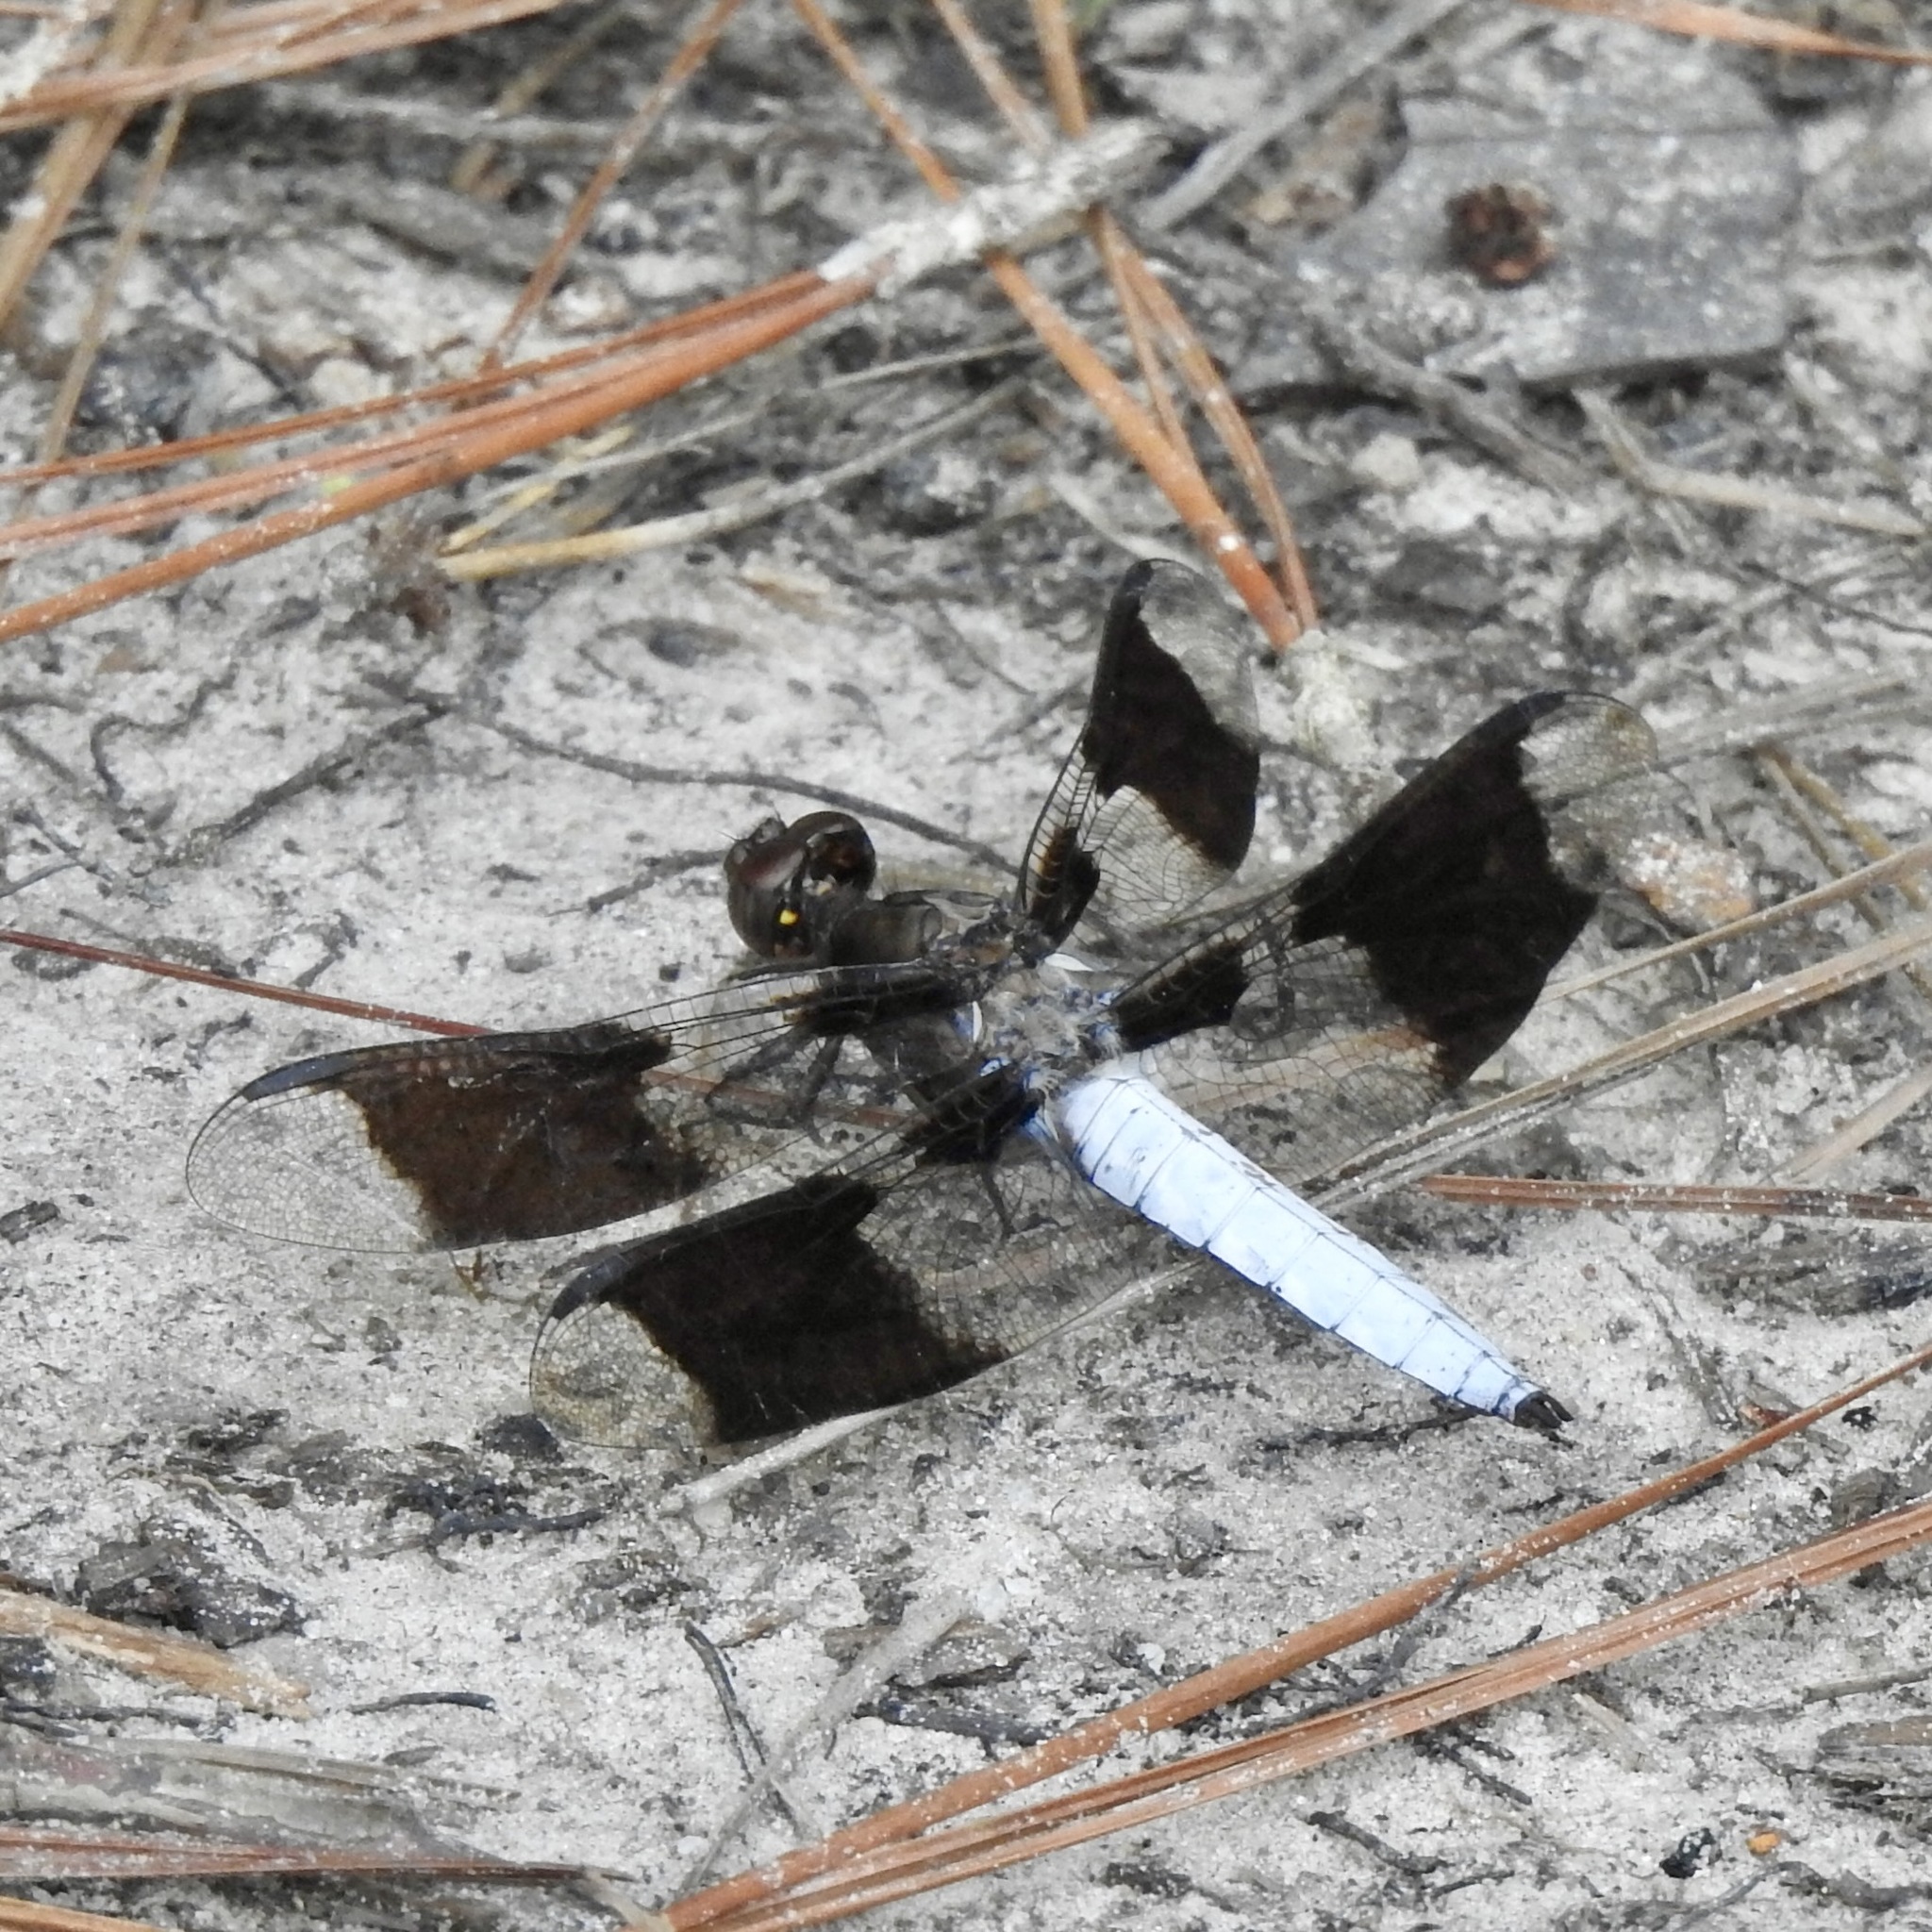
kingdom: Animalia
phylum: Arthropoda
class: Insecta
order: Odonata
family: Libellulidae
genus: Plathemis
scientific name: Plathemis lydia
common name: Common whitetail
